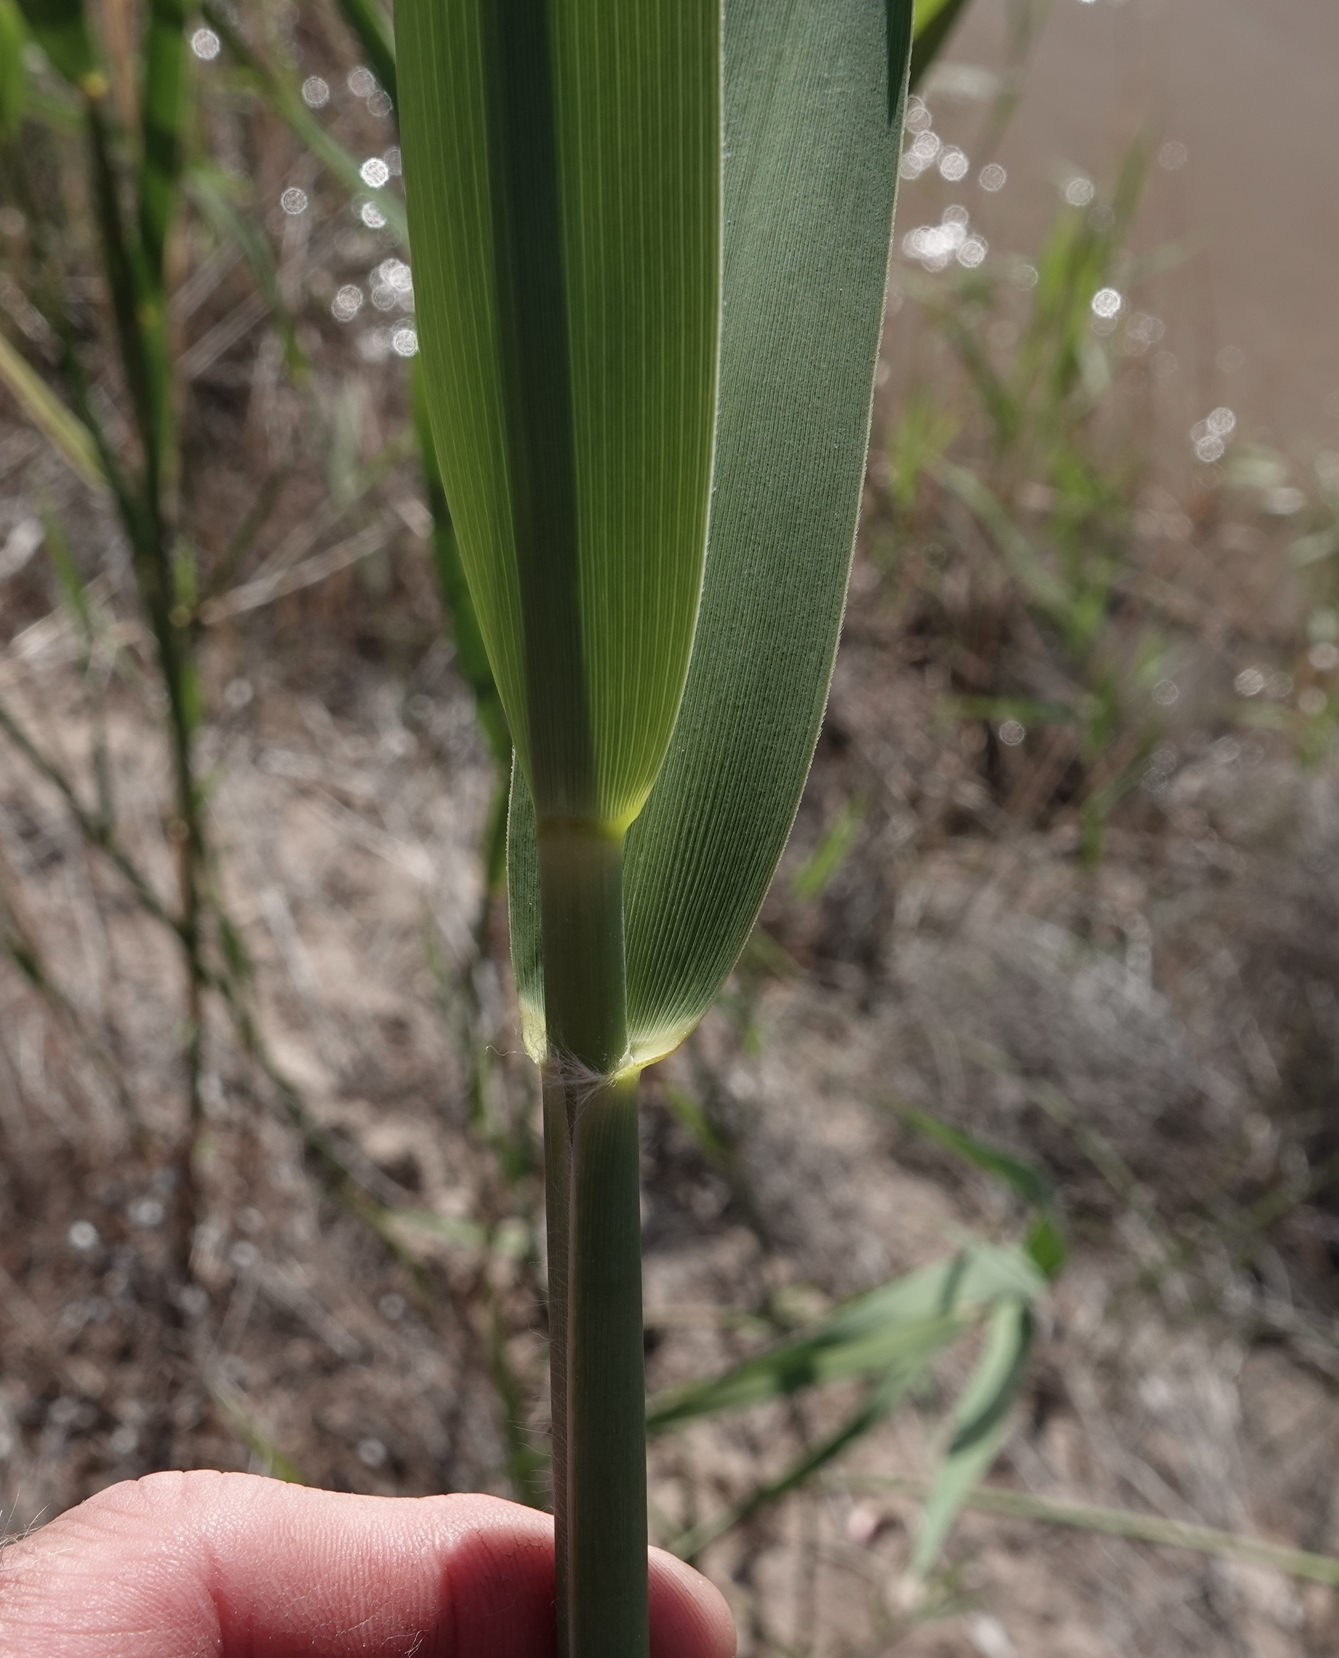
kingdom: Plantae
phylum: Tracheophyta
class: Liliopsida
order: Poales
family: Poaceae
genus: Phragmites
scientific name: Phragmites australis
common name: Common reed
